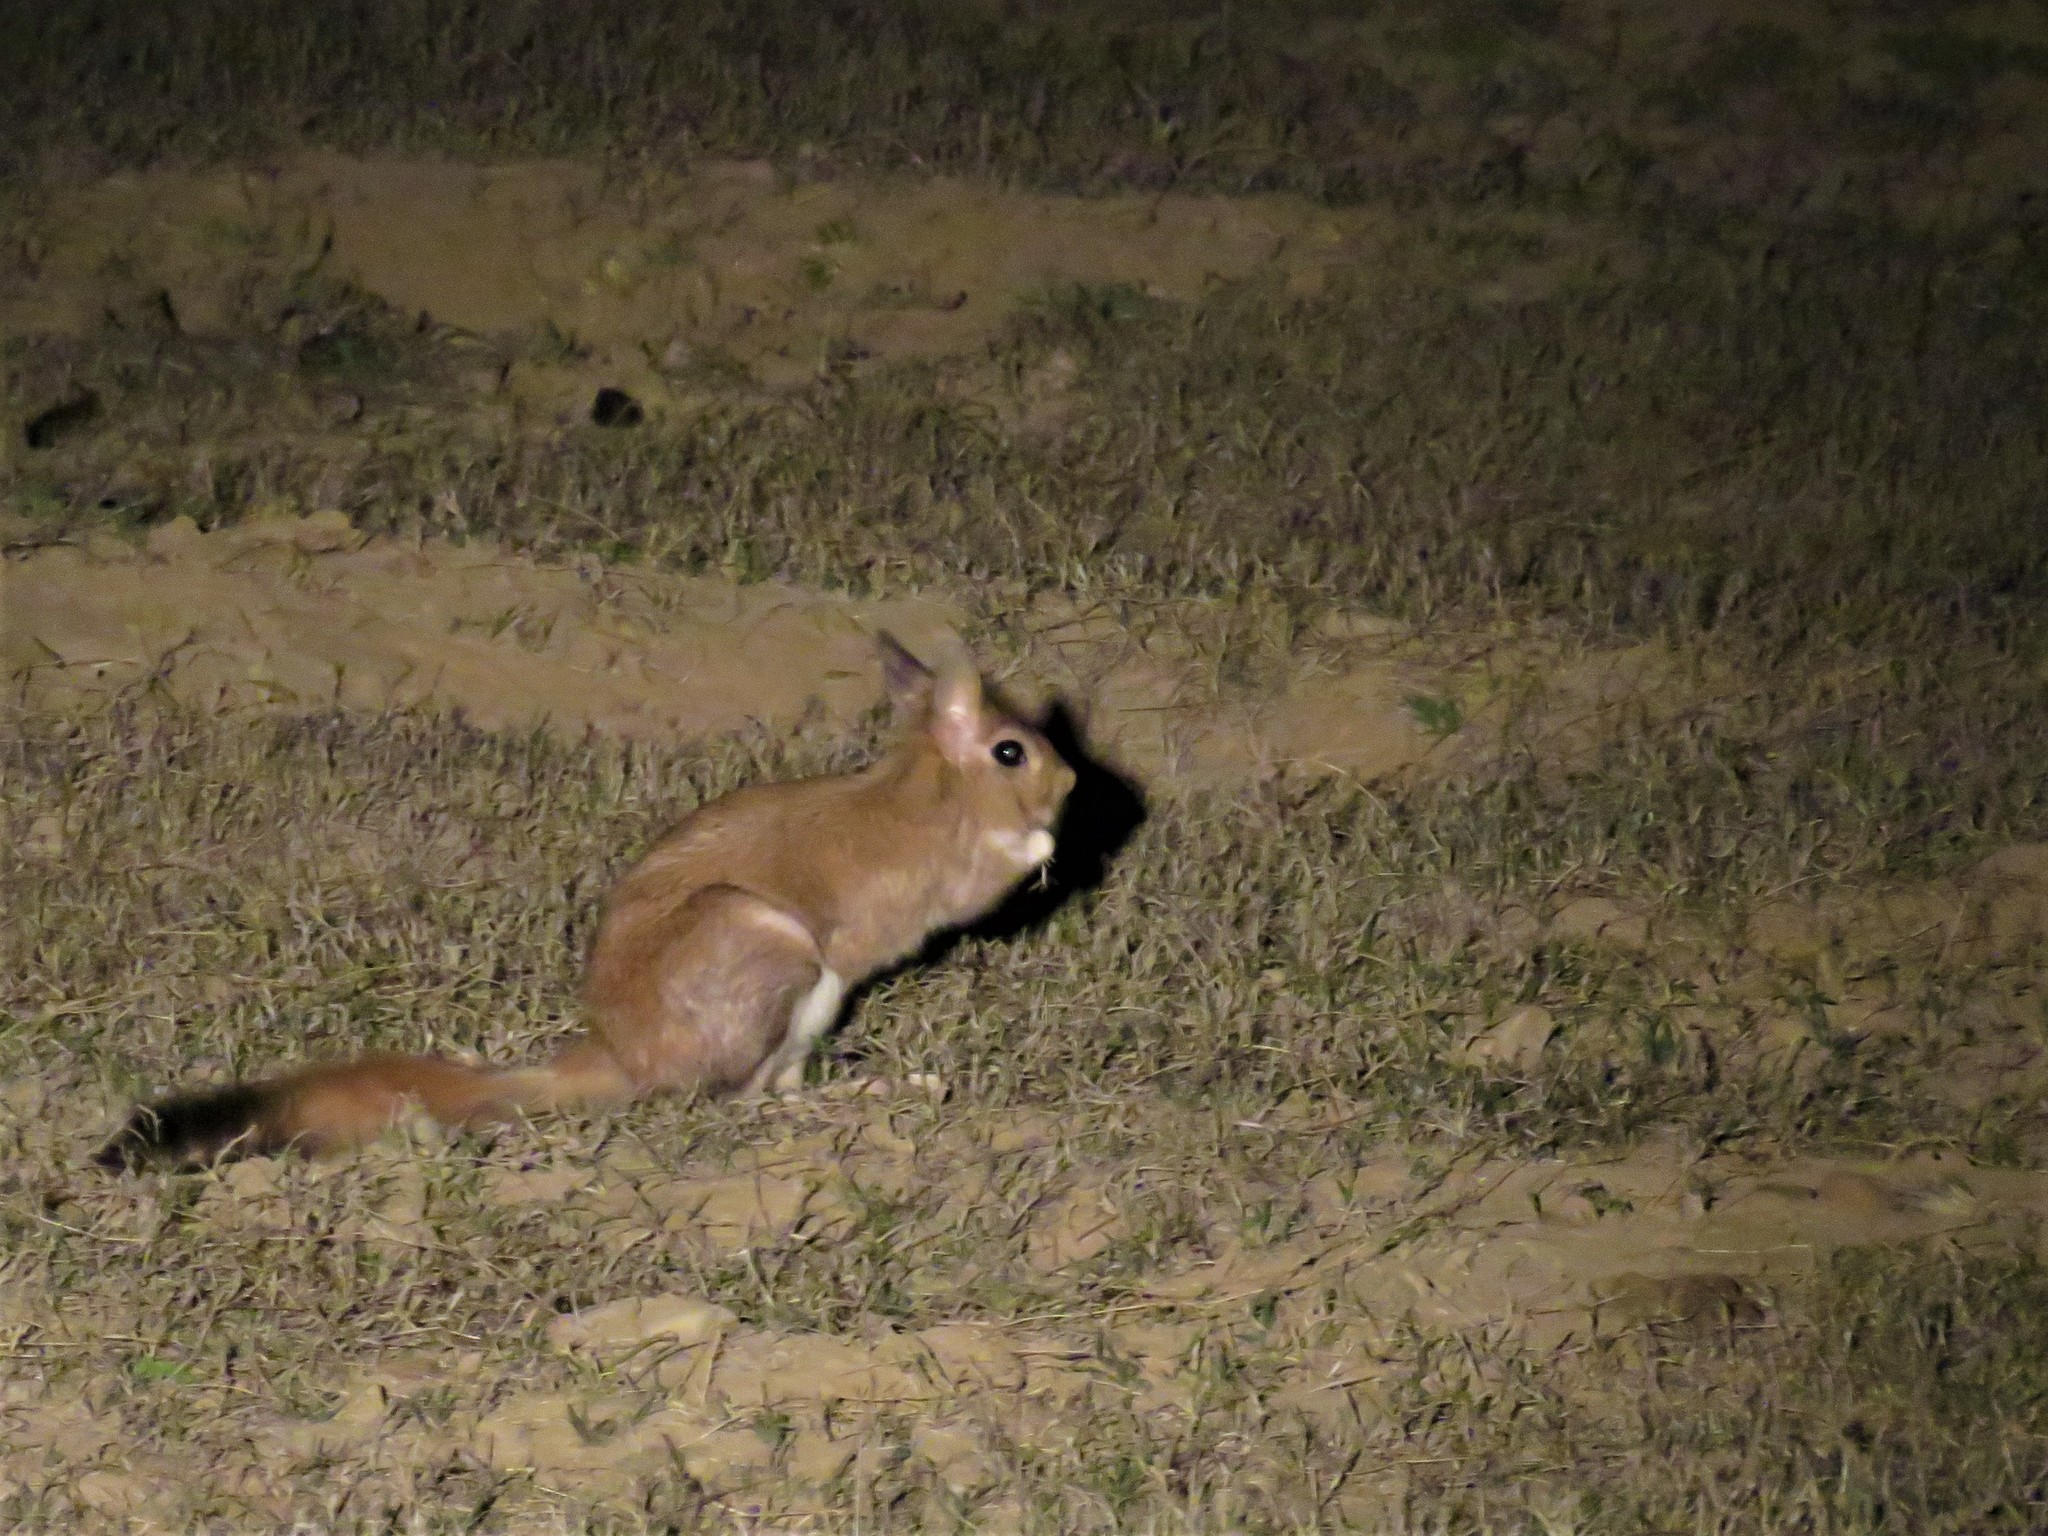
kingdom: Animalia
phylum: Chordata
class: Mammalia
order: Rodentia
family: Pedetidae
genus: Pedetes
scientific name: Pedetes capensis
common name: South african spring hare
